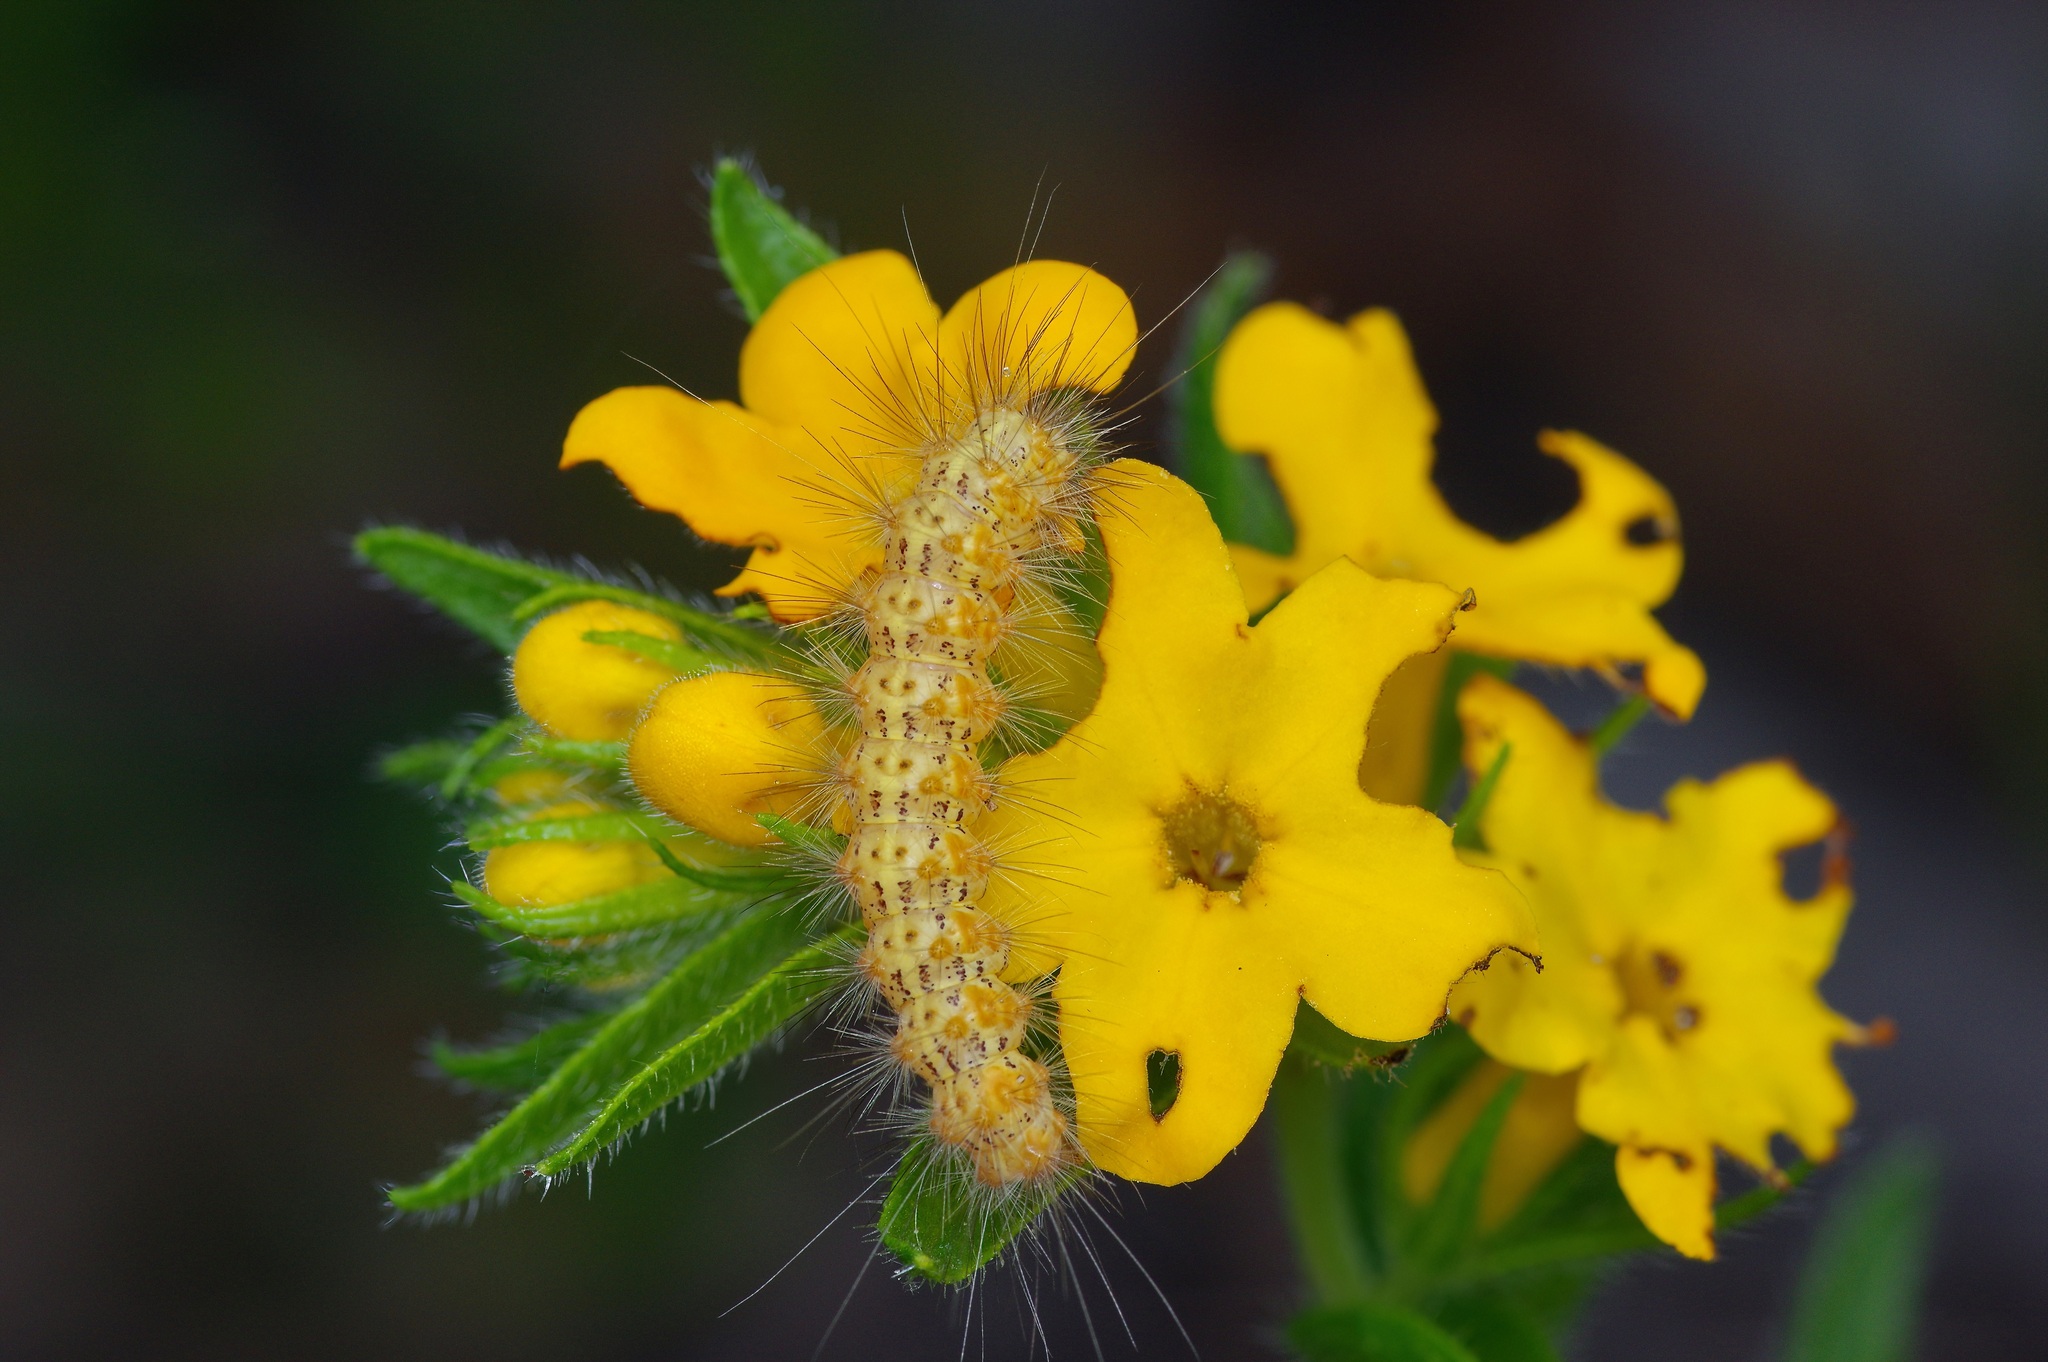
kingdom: Animalia
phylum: Arthropoda
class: Insecta
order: Lepidoptera
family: Erebidae
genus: Estigmene
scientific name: Estigmene acrea
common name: Salt marsh moth
